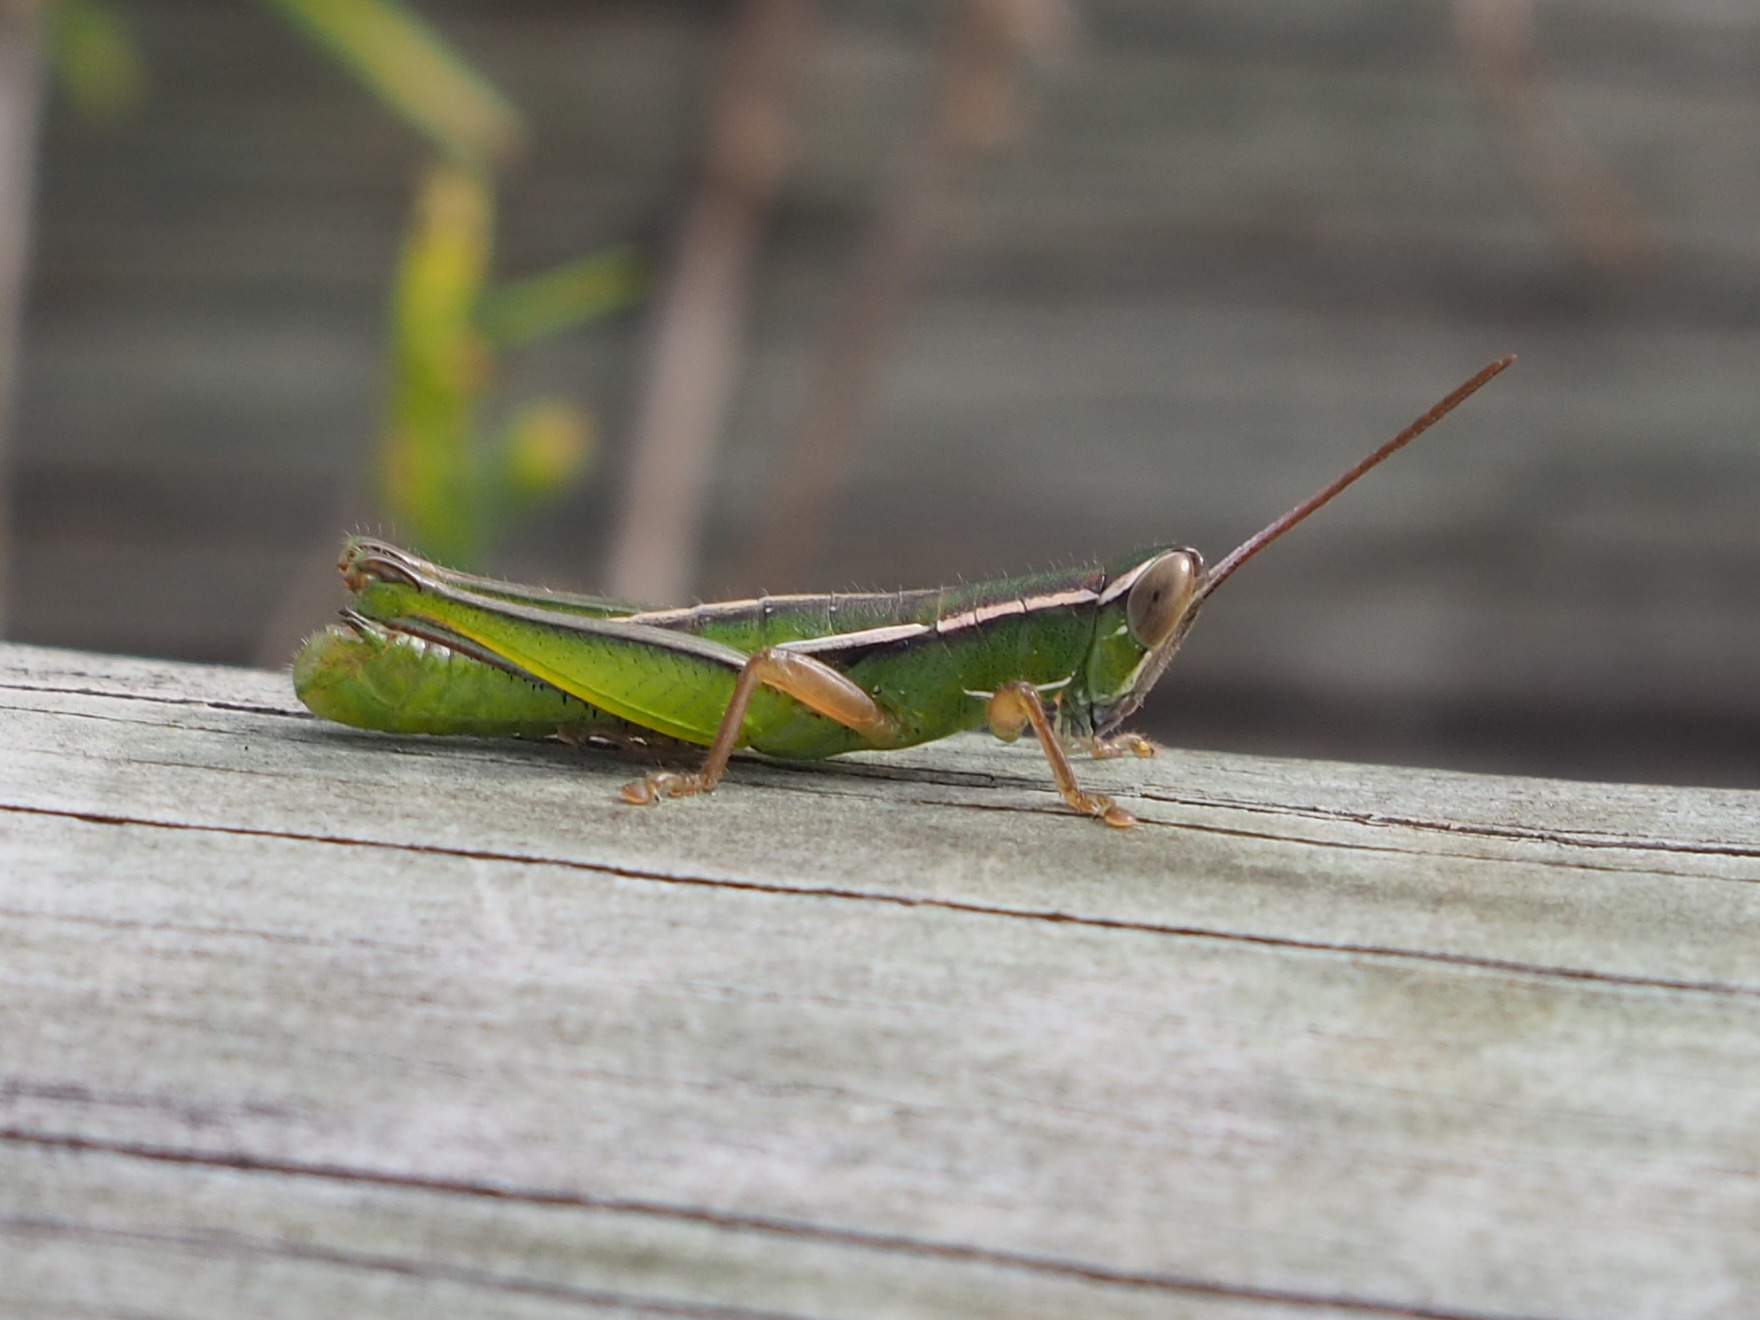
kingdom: Animalia
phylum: Arthropoda
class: Insecta
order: Orthoptera
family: Acrididae
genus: Aptenopedes
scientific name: Aptenopedes sphenarioides
